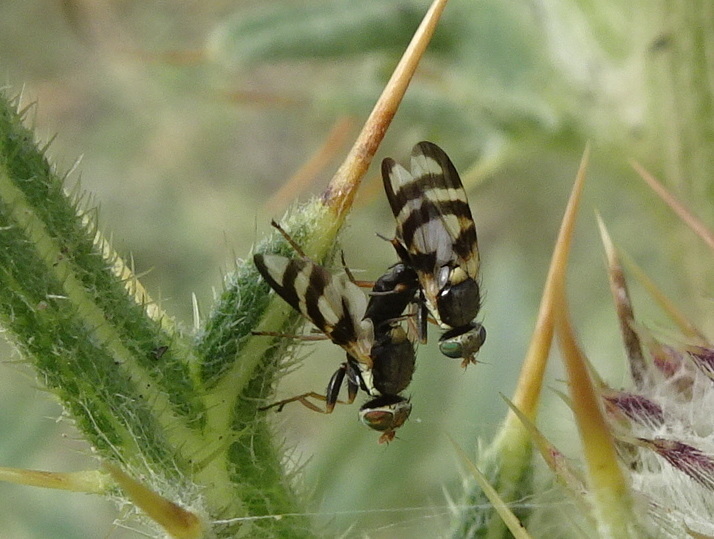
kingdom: Animalia
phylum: Arthropoda
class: Insecta
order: Diptera
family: Tephritidae
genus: Urophora
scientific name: Urophora quadrifasciata
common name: Knapweed seedhead fly
